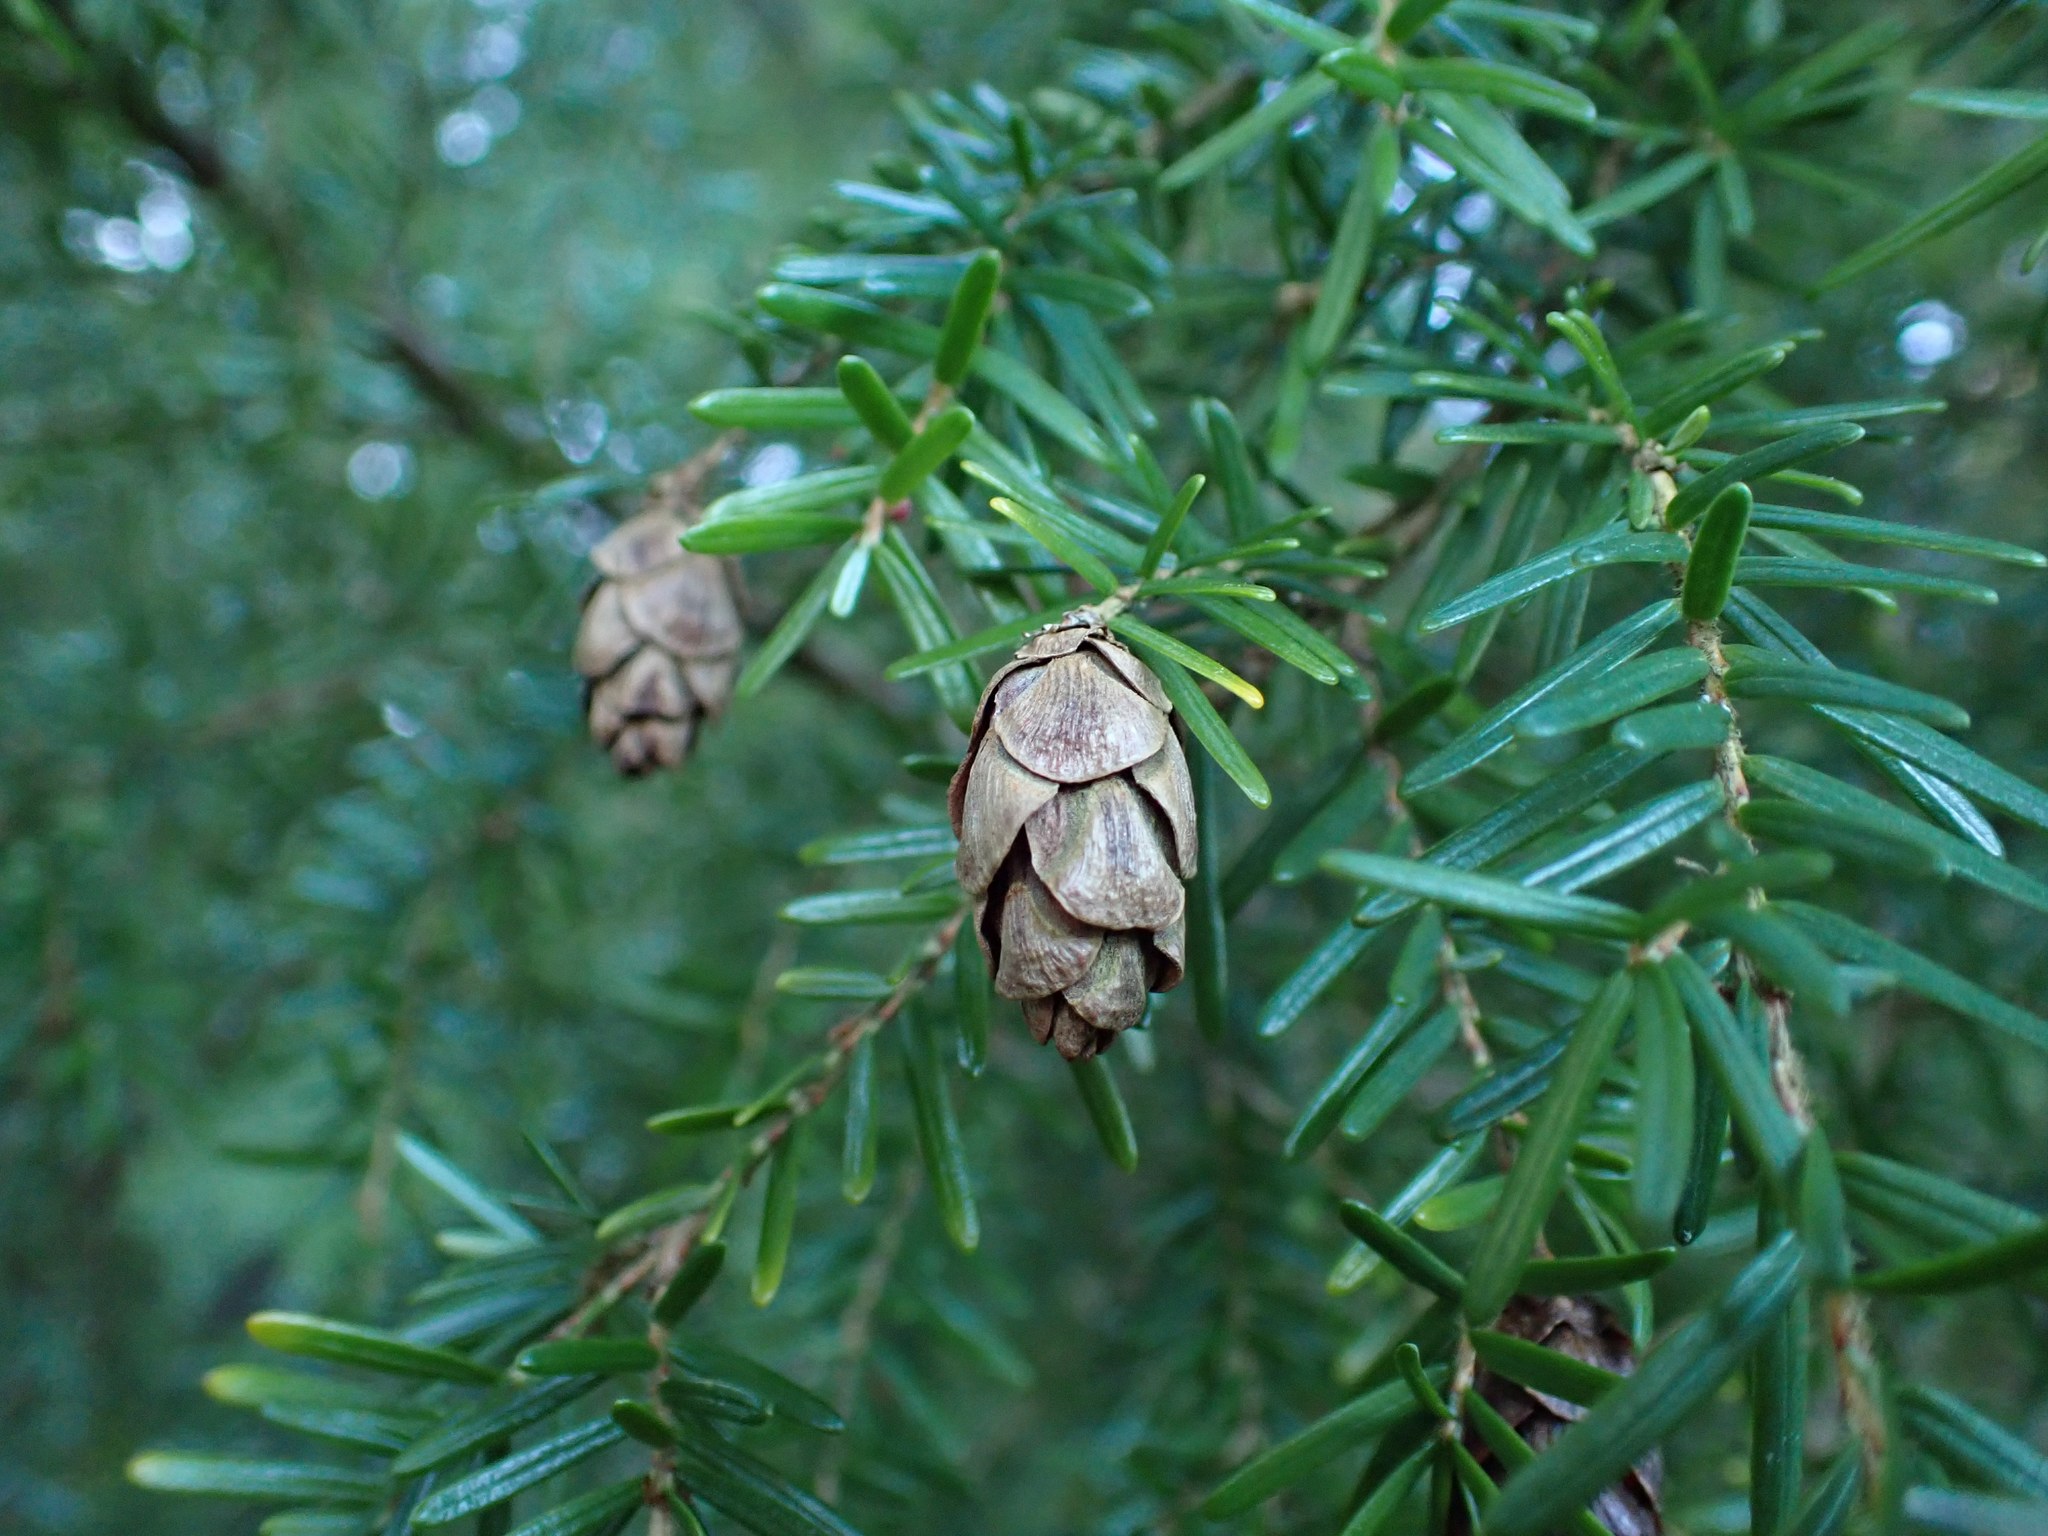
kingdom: Plantae
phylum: Tracheophyta
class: Pinopsida
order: Pinales
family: Pinaceae
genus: Tsuga
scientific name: Tsuga heterophylla
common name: Western hemlock
